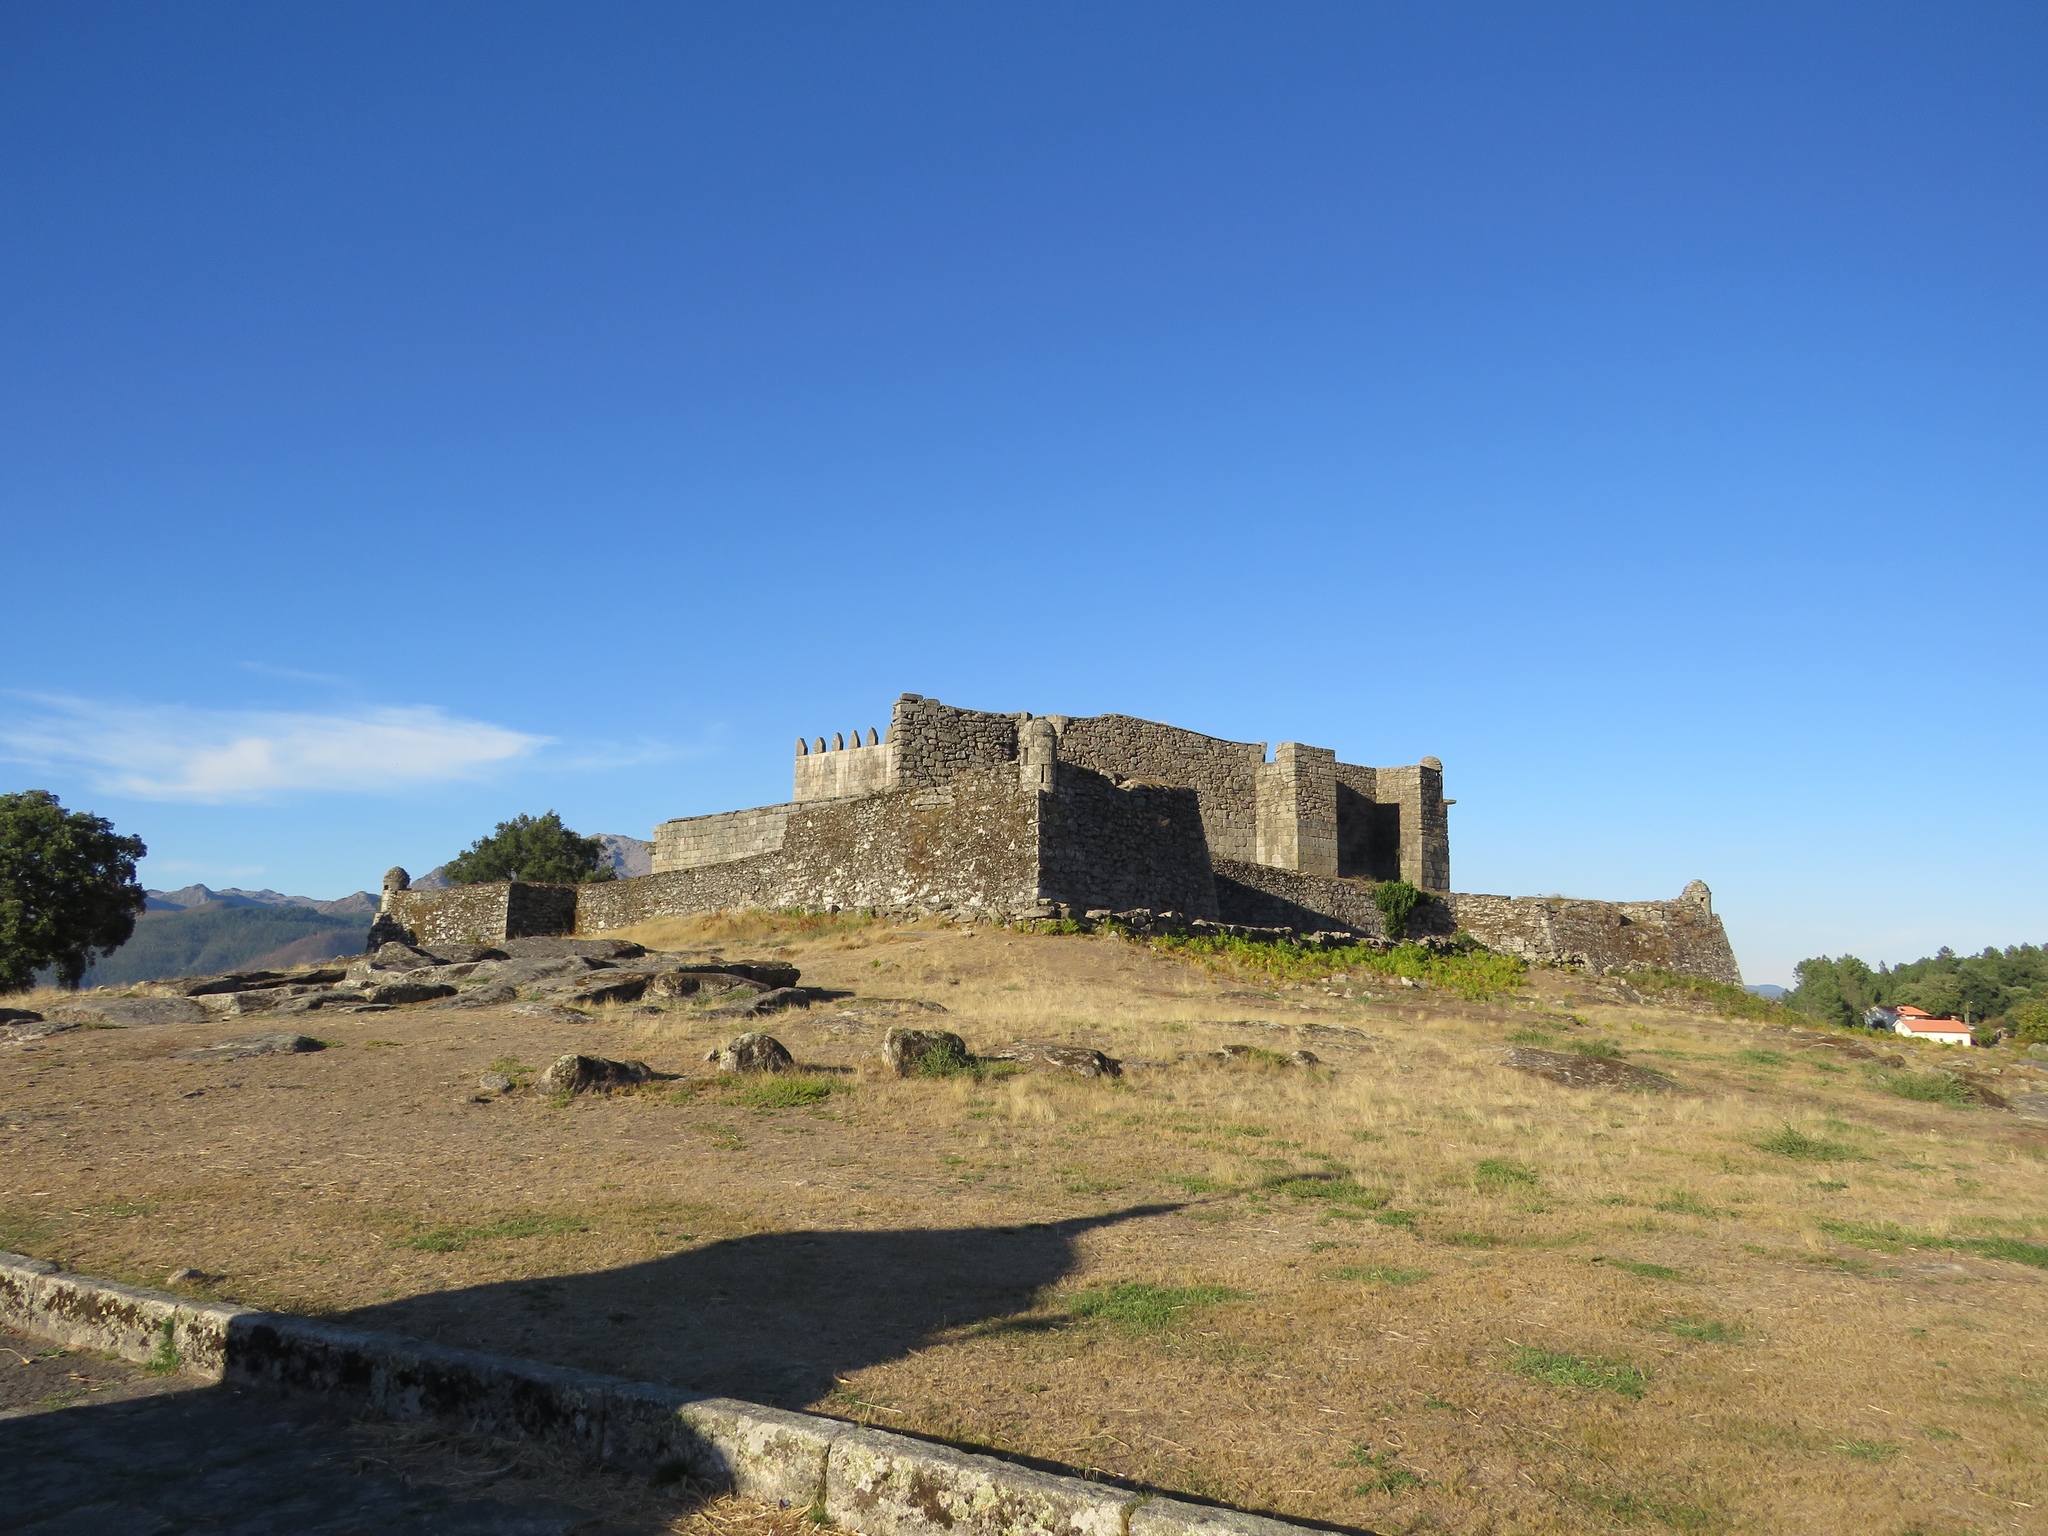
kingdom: Animalia
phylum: Chordata
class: Aves
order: Strigiformes
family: Strigidae
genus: Strix
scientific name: Strix aluco
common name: Tawny owl
